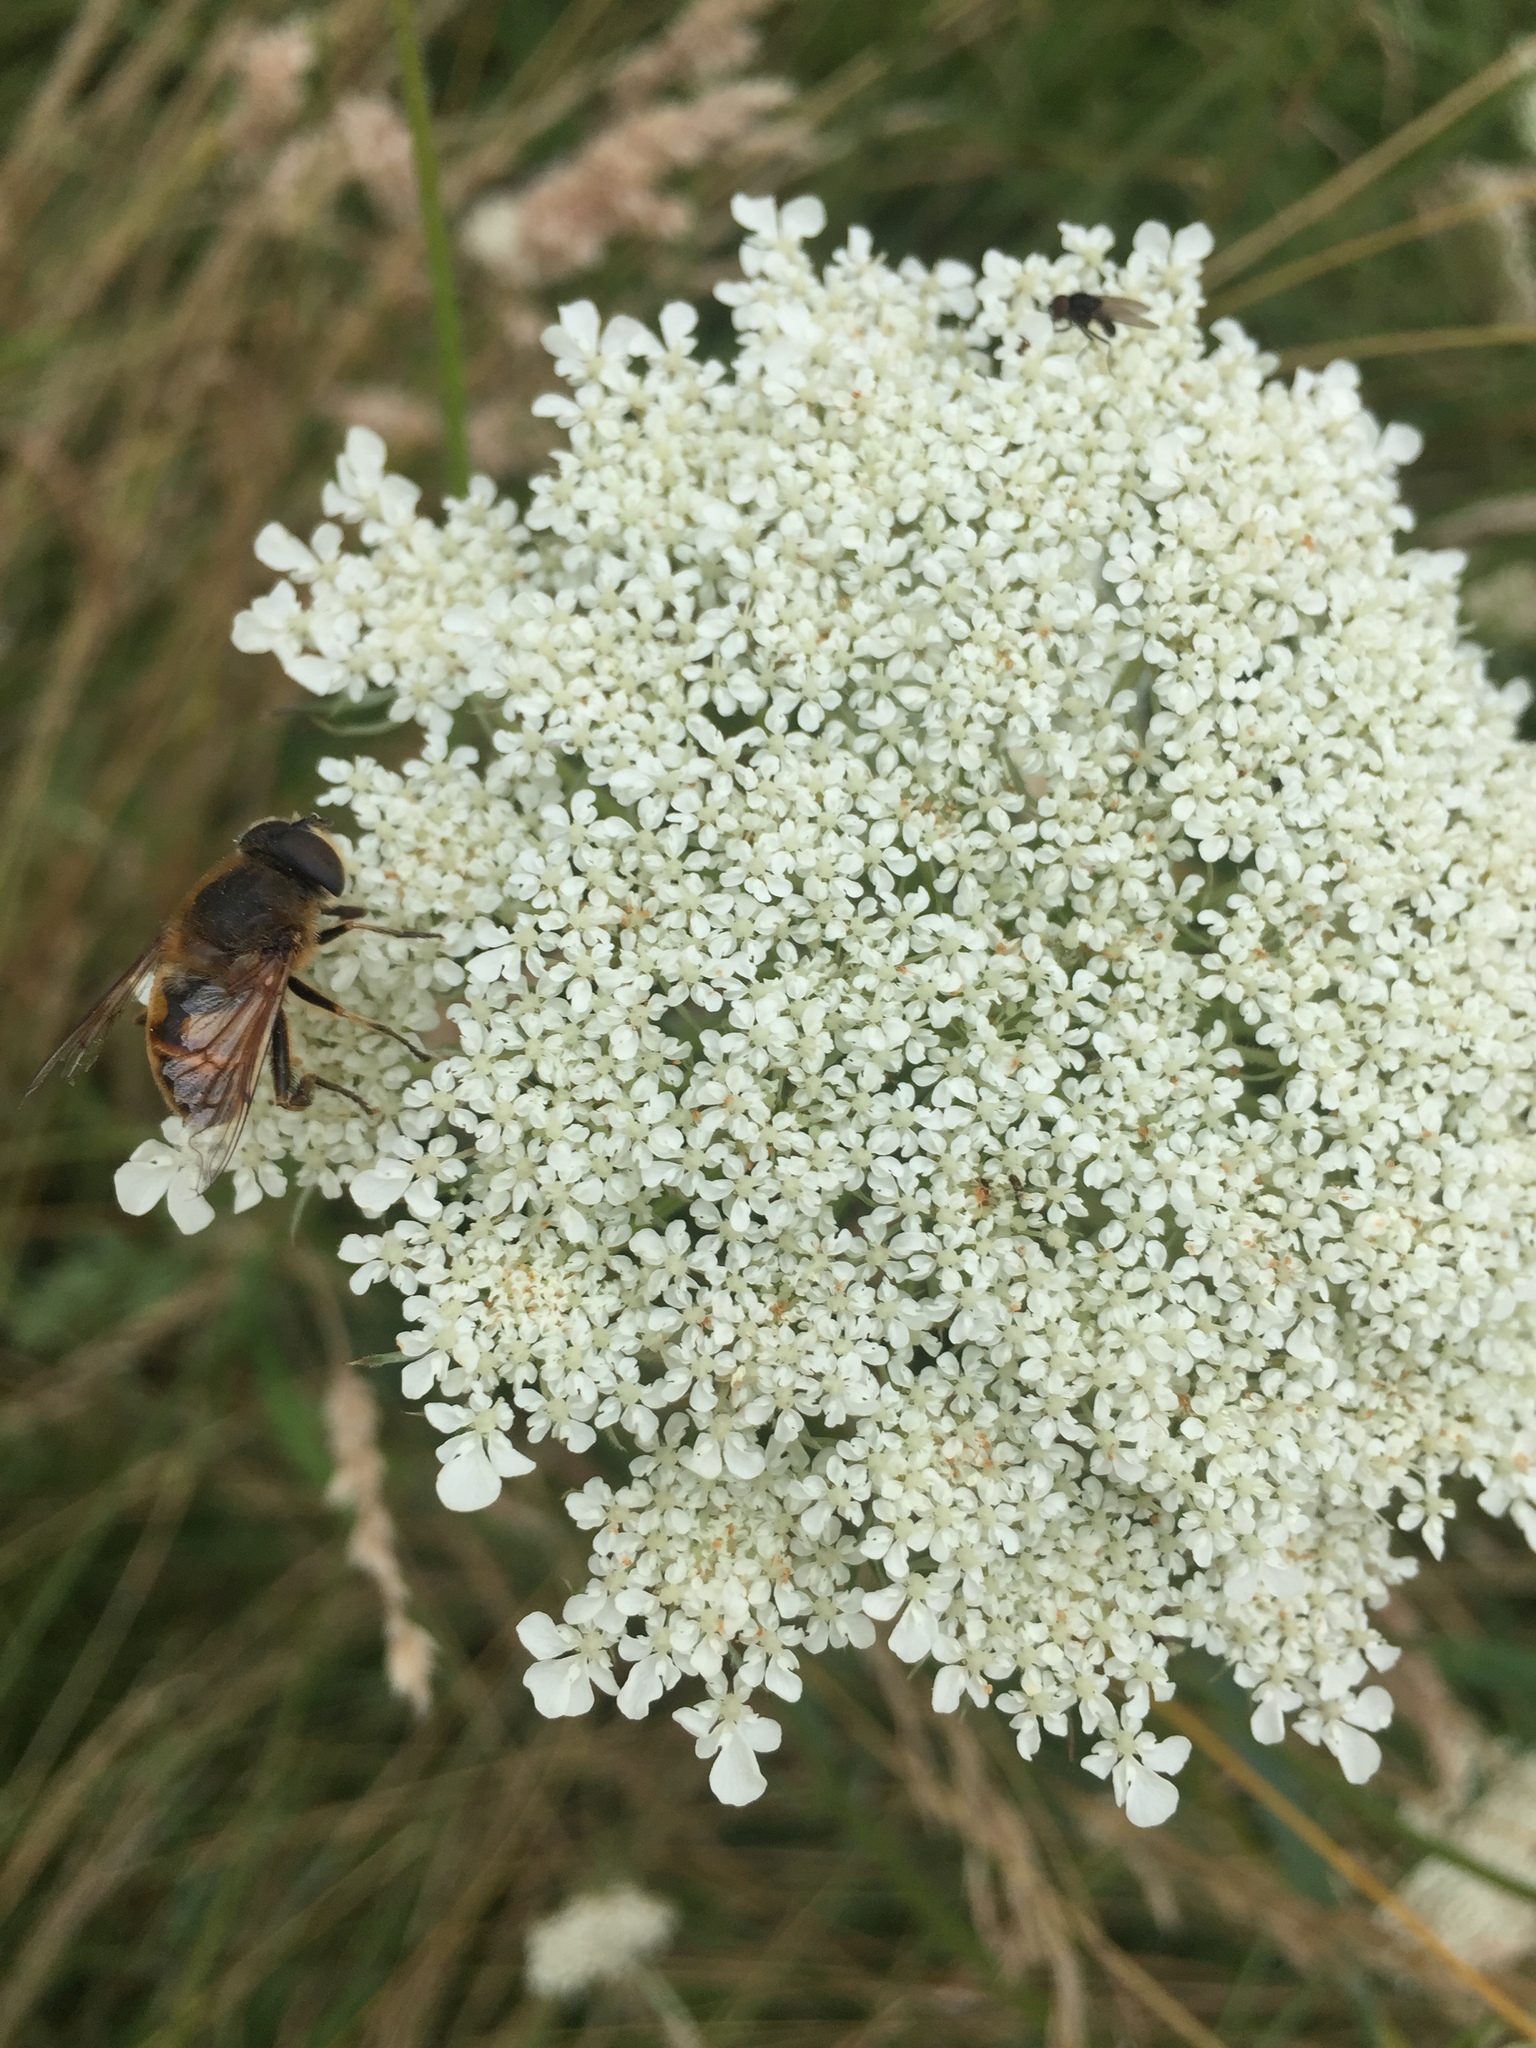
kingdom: Animalia
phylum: Arthropoda
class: Insecta
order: Diptera
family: Syrphidae
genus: Eristalis
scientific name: Eristalis tenax
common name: Drone fly
